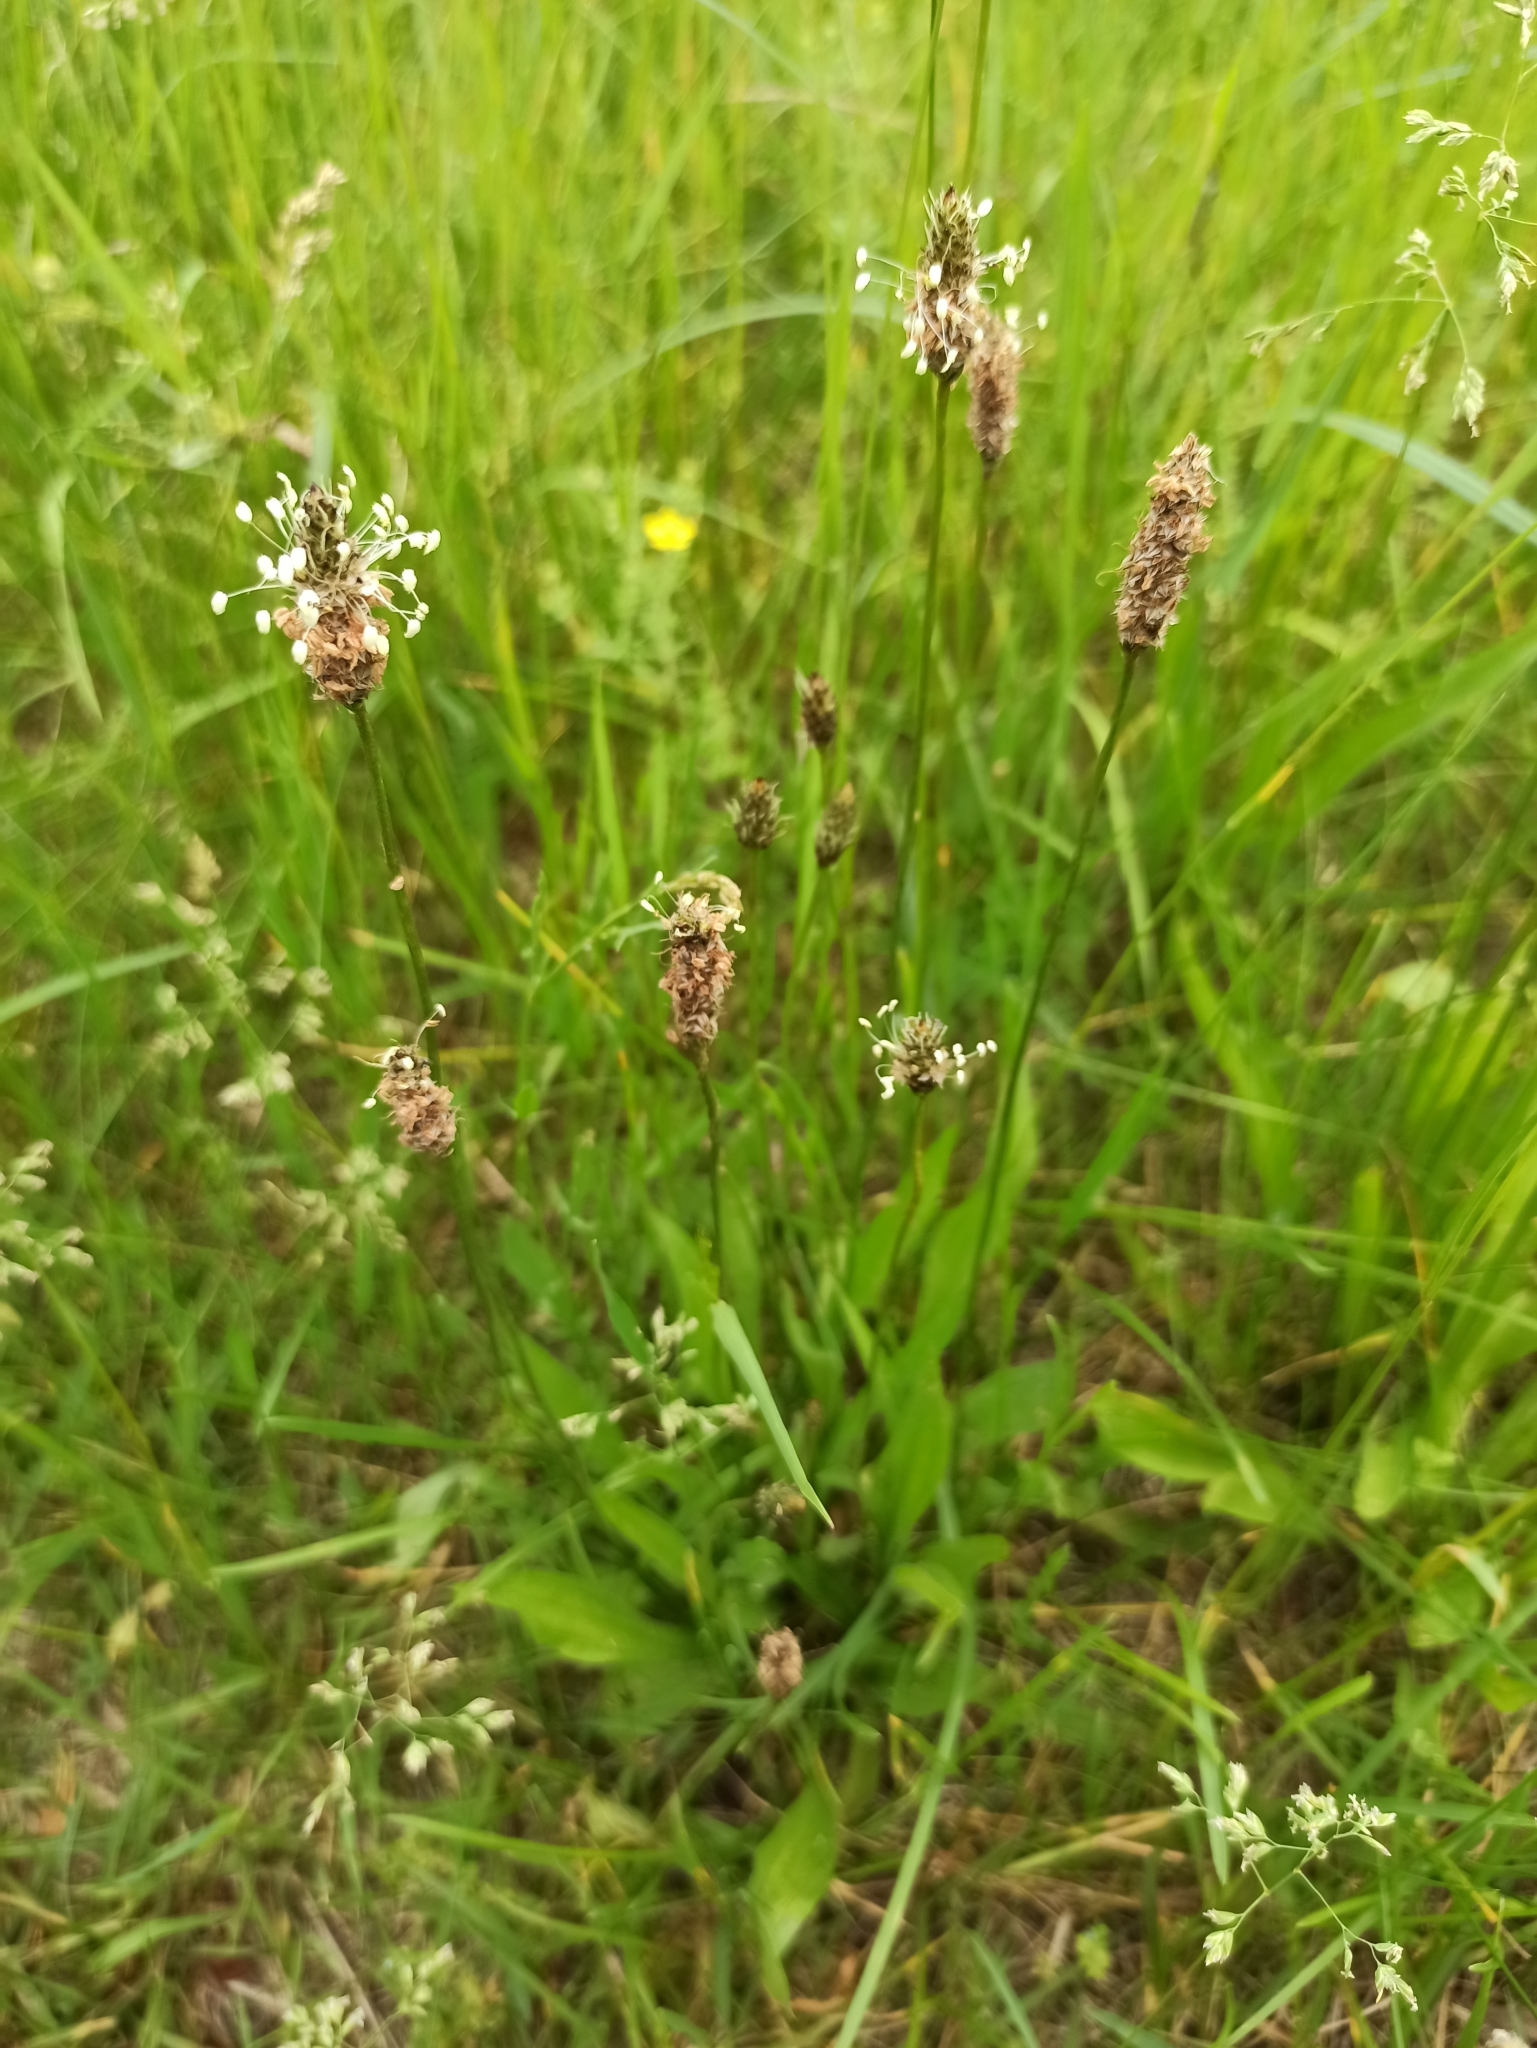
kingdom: Plantae
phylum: Tracheophyta
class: Magnoliopsida
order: Lamiales
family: Plantaginaceae
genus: Plantago
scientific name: Plantago lanceolata
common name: Ribwort plantain
